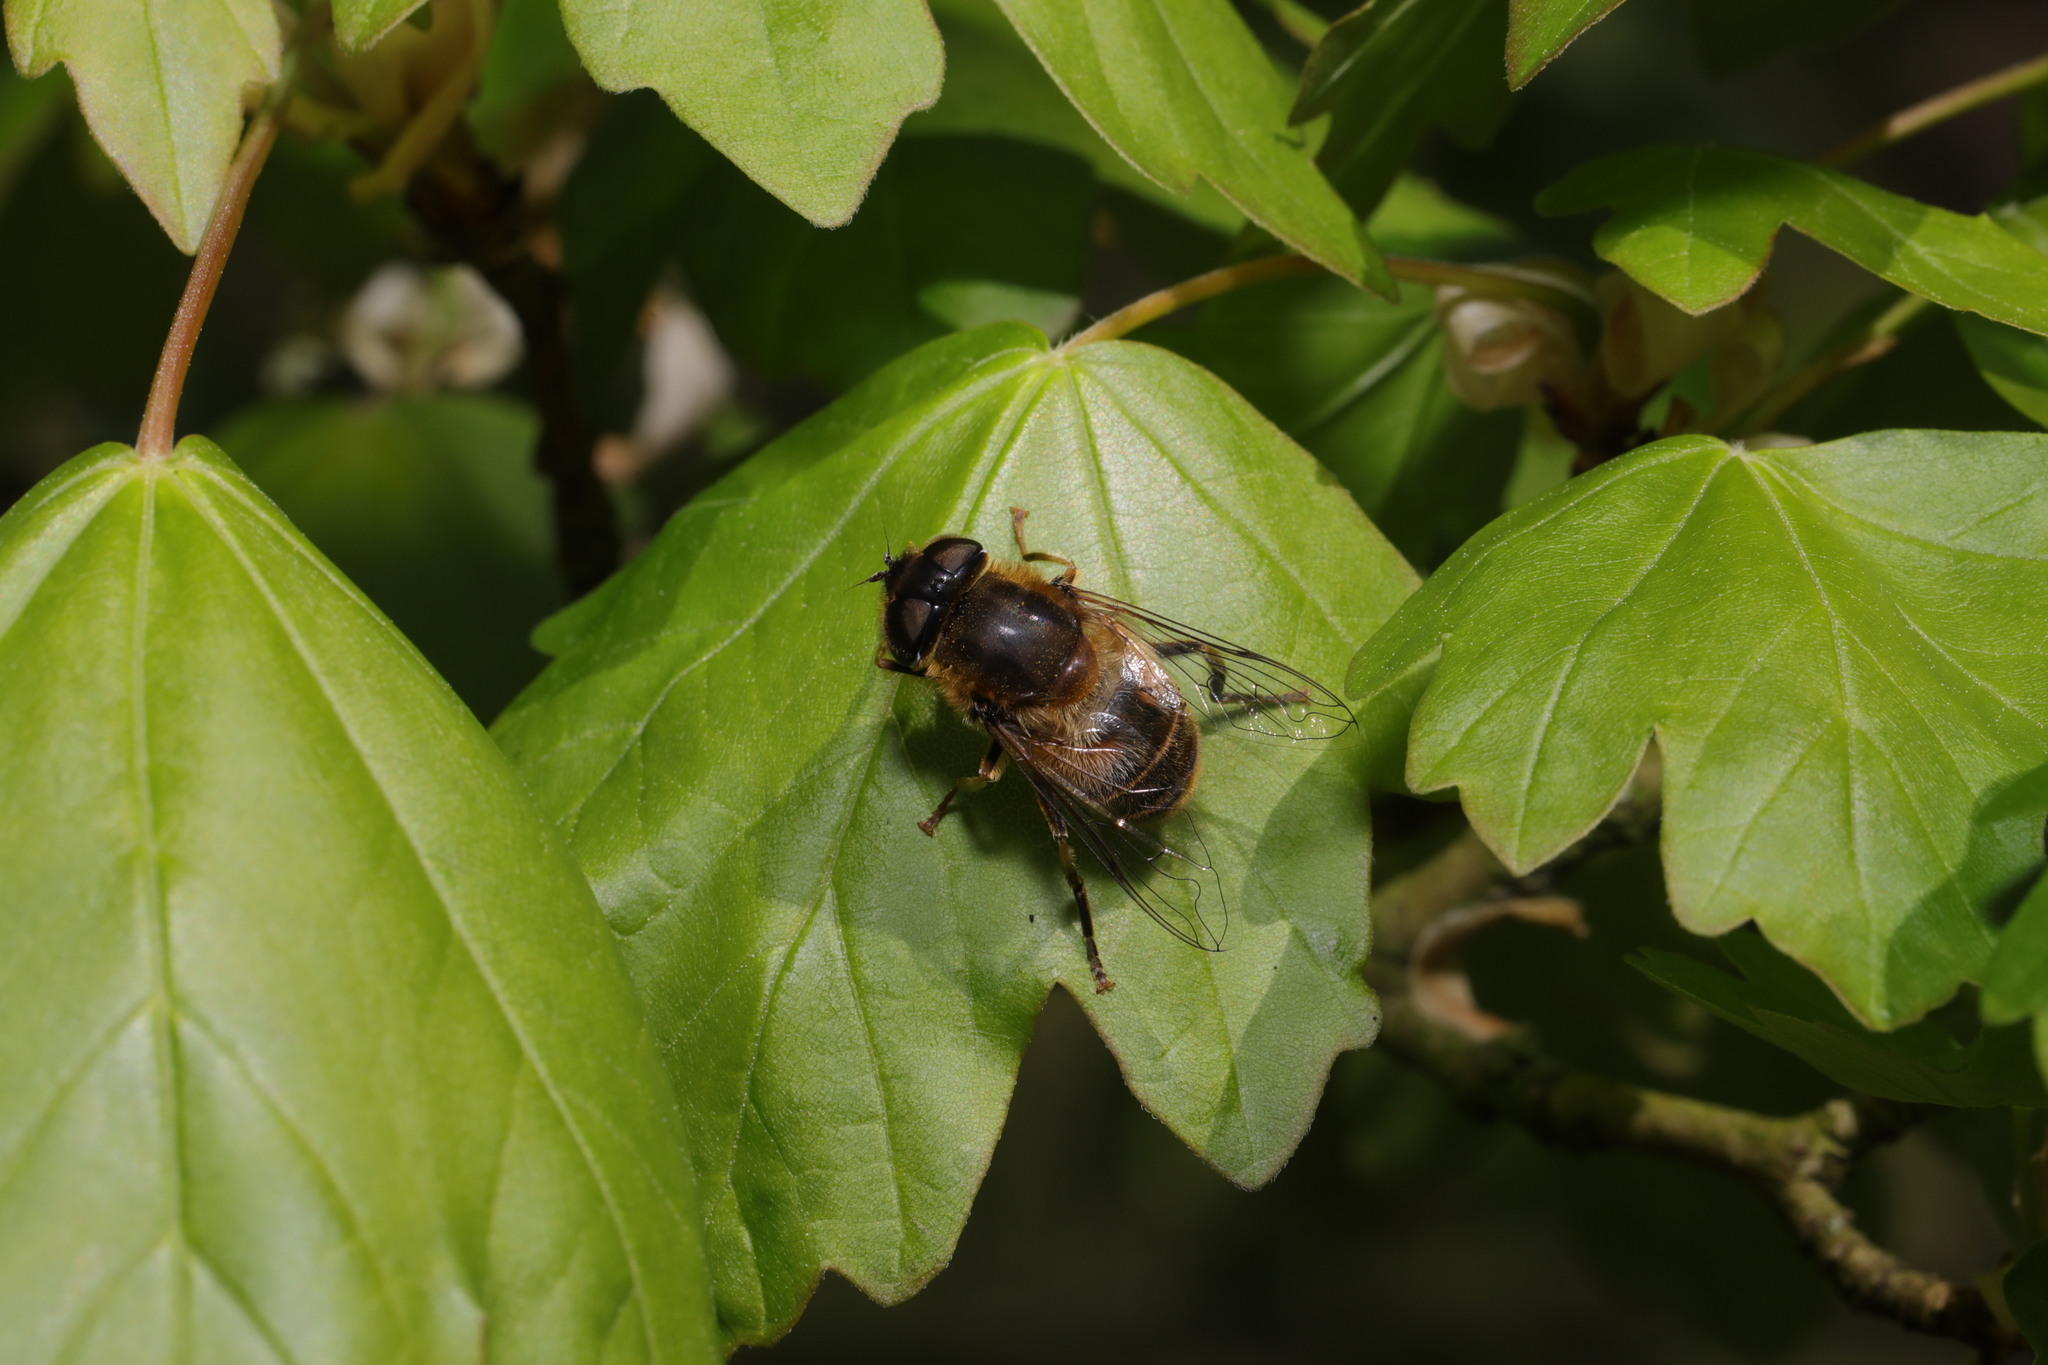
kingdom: Animalia
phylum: Arthropoda
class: Insecta
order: Diptera
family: Syrphidae
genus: Eristalis
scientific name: Eristalis pertinax
